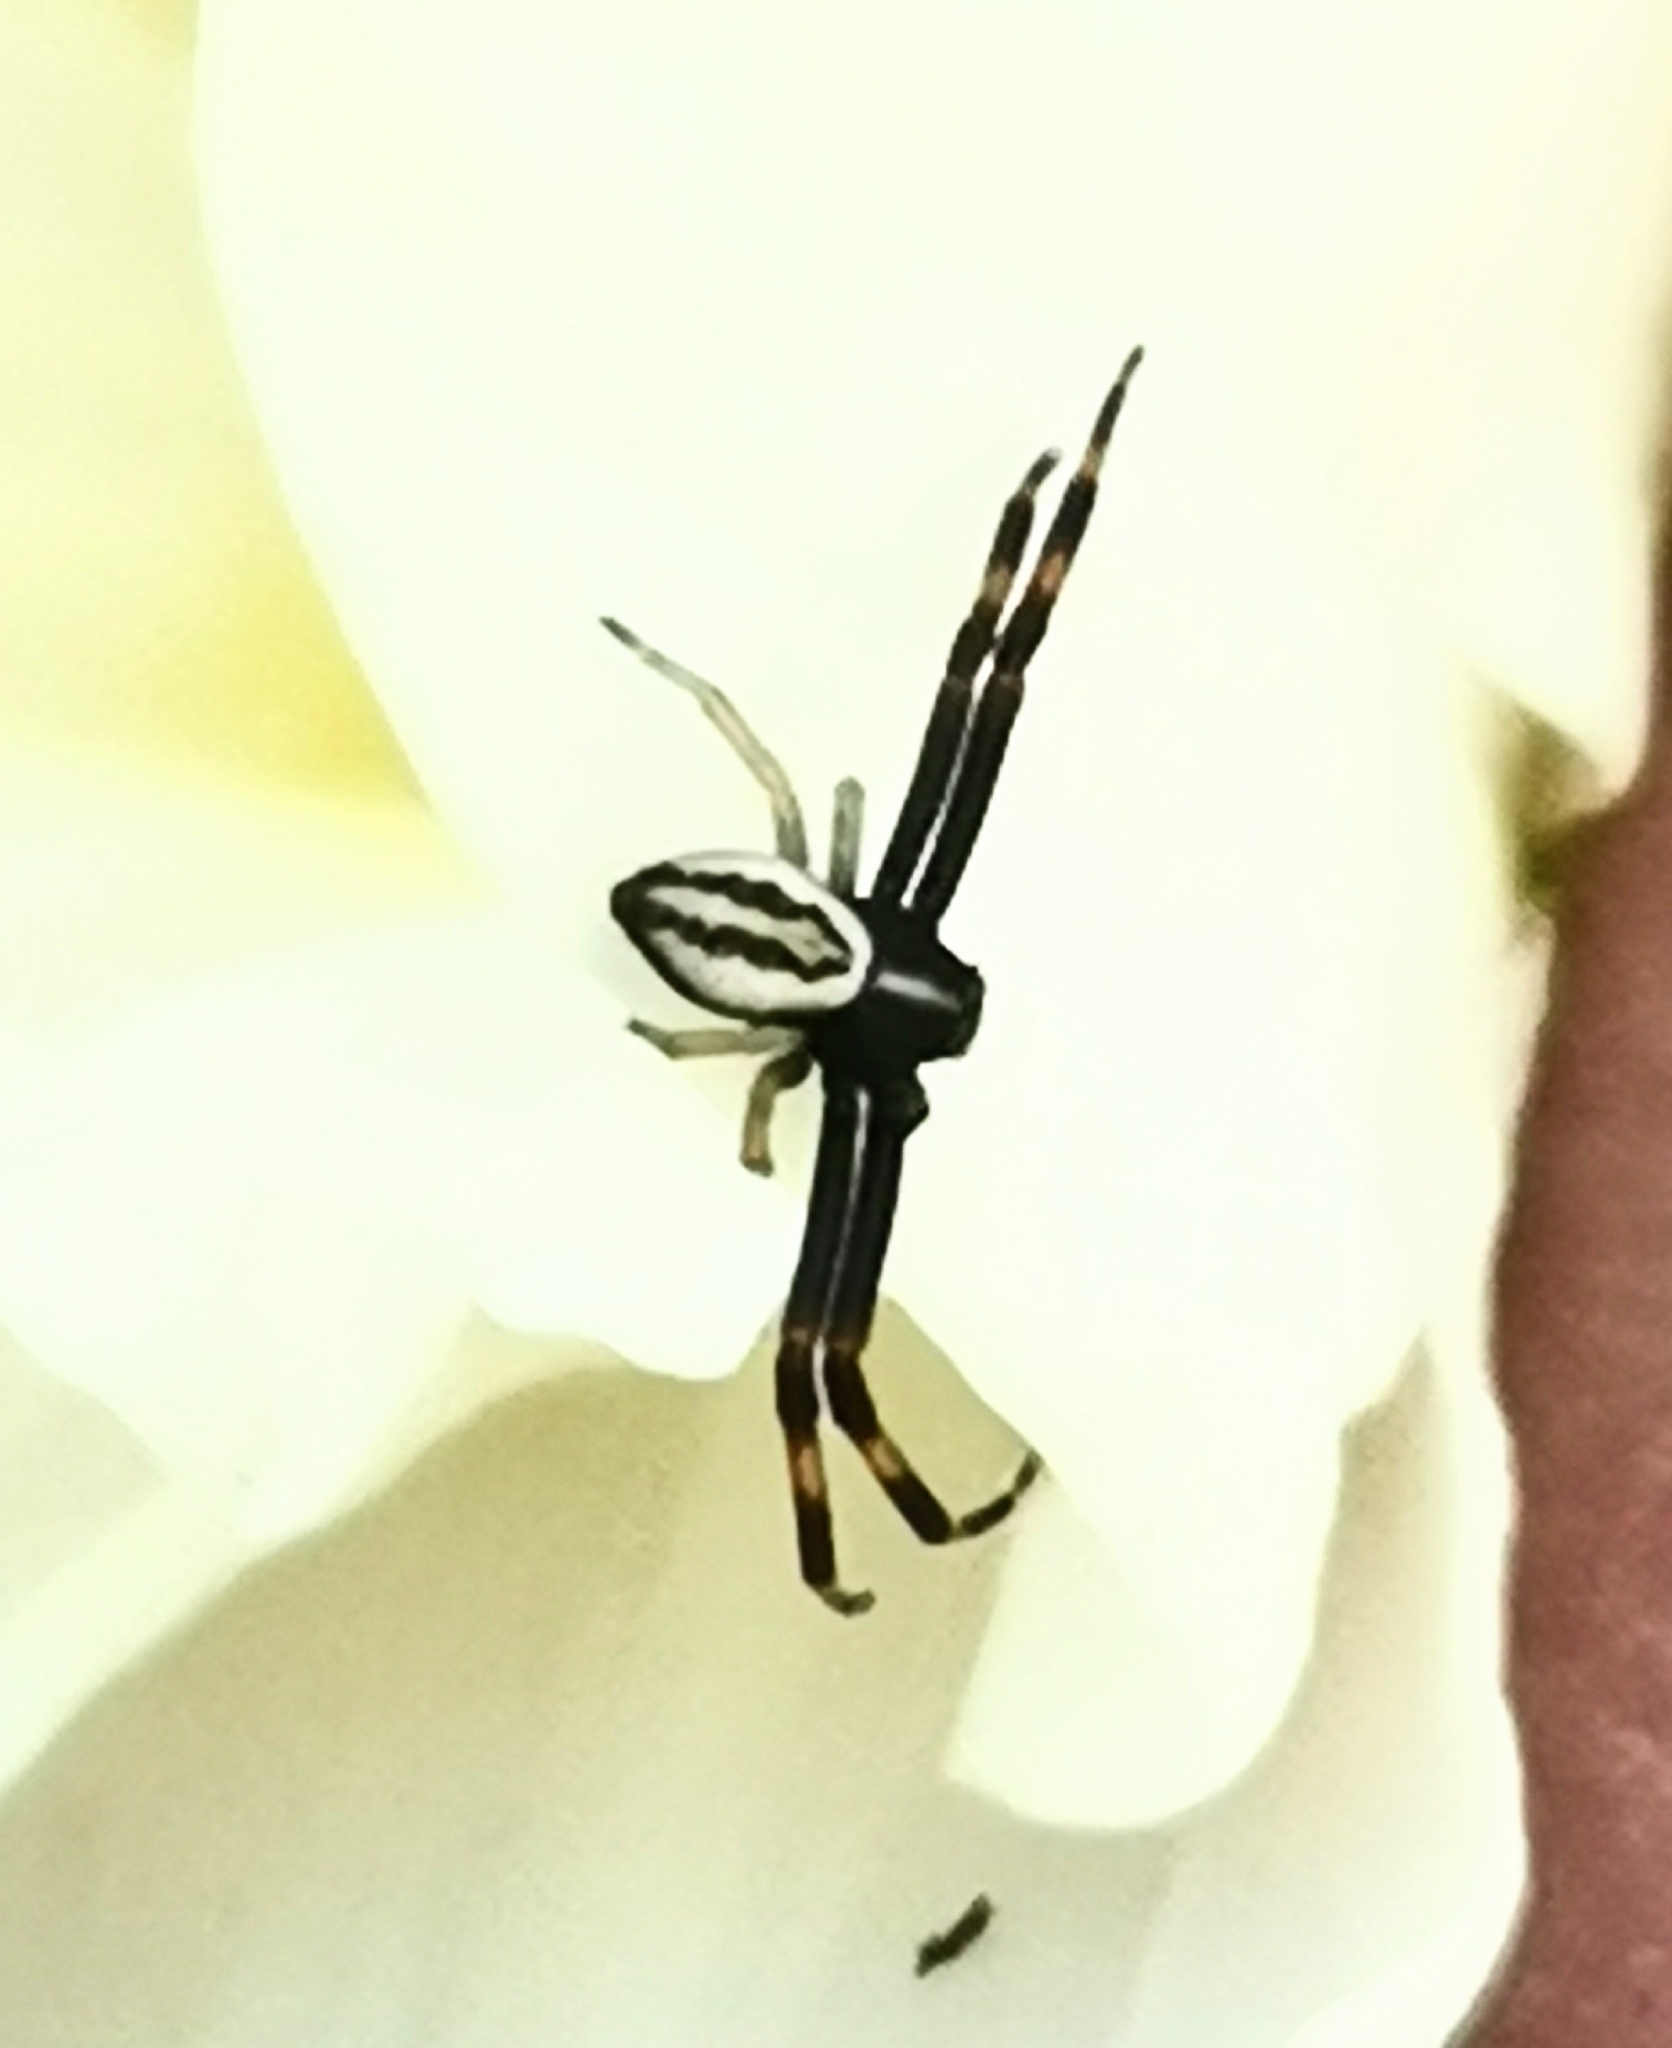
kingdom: Animalia
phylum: Arthropoda
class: Arachnida
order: Araneae
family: Thomisidae
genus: Misumena
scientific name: Misumena vatia
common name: Goldenrod crab spider
